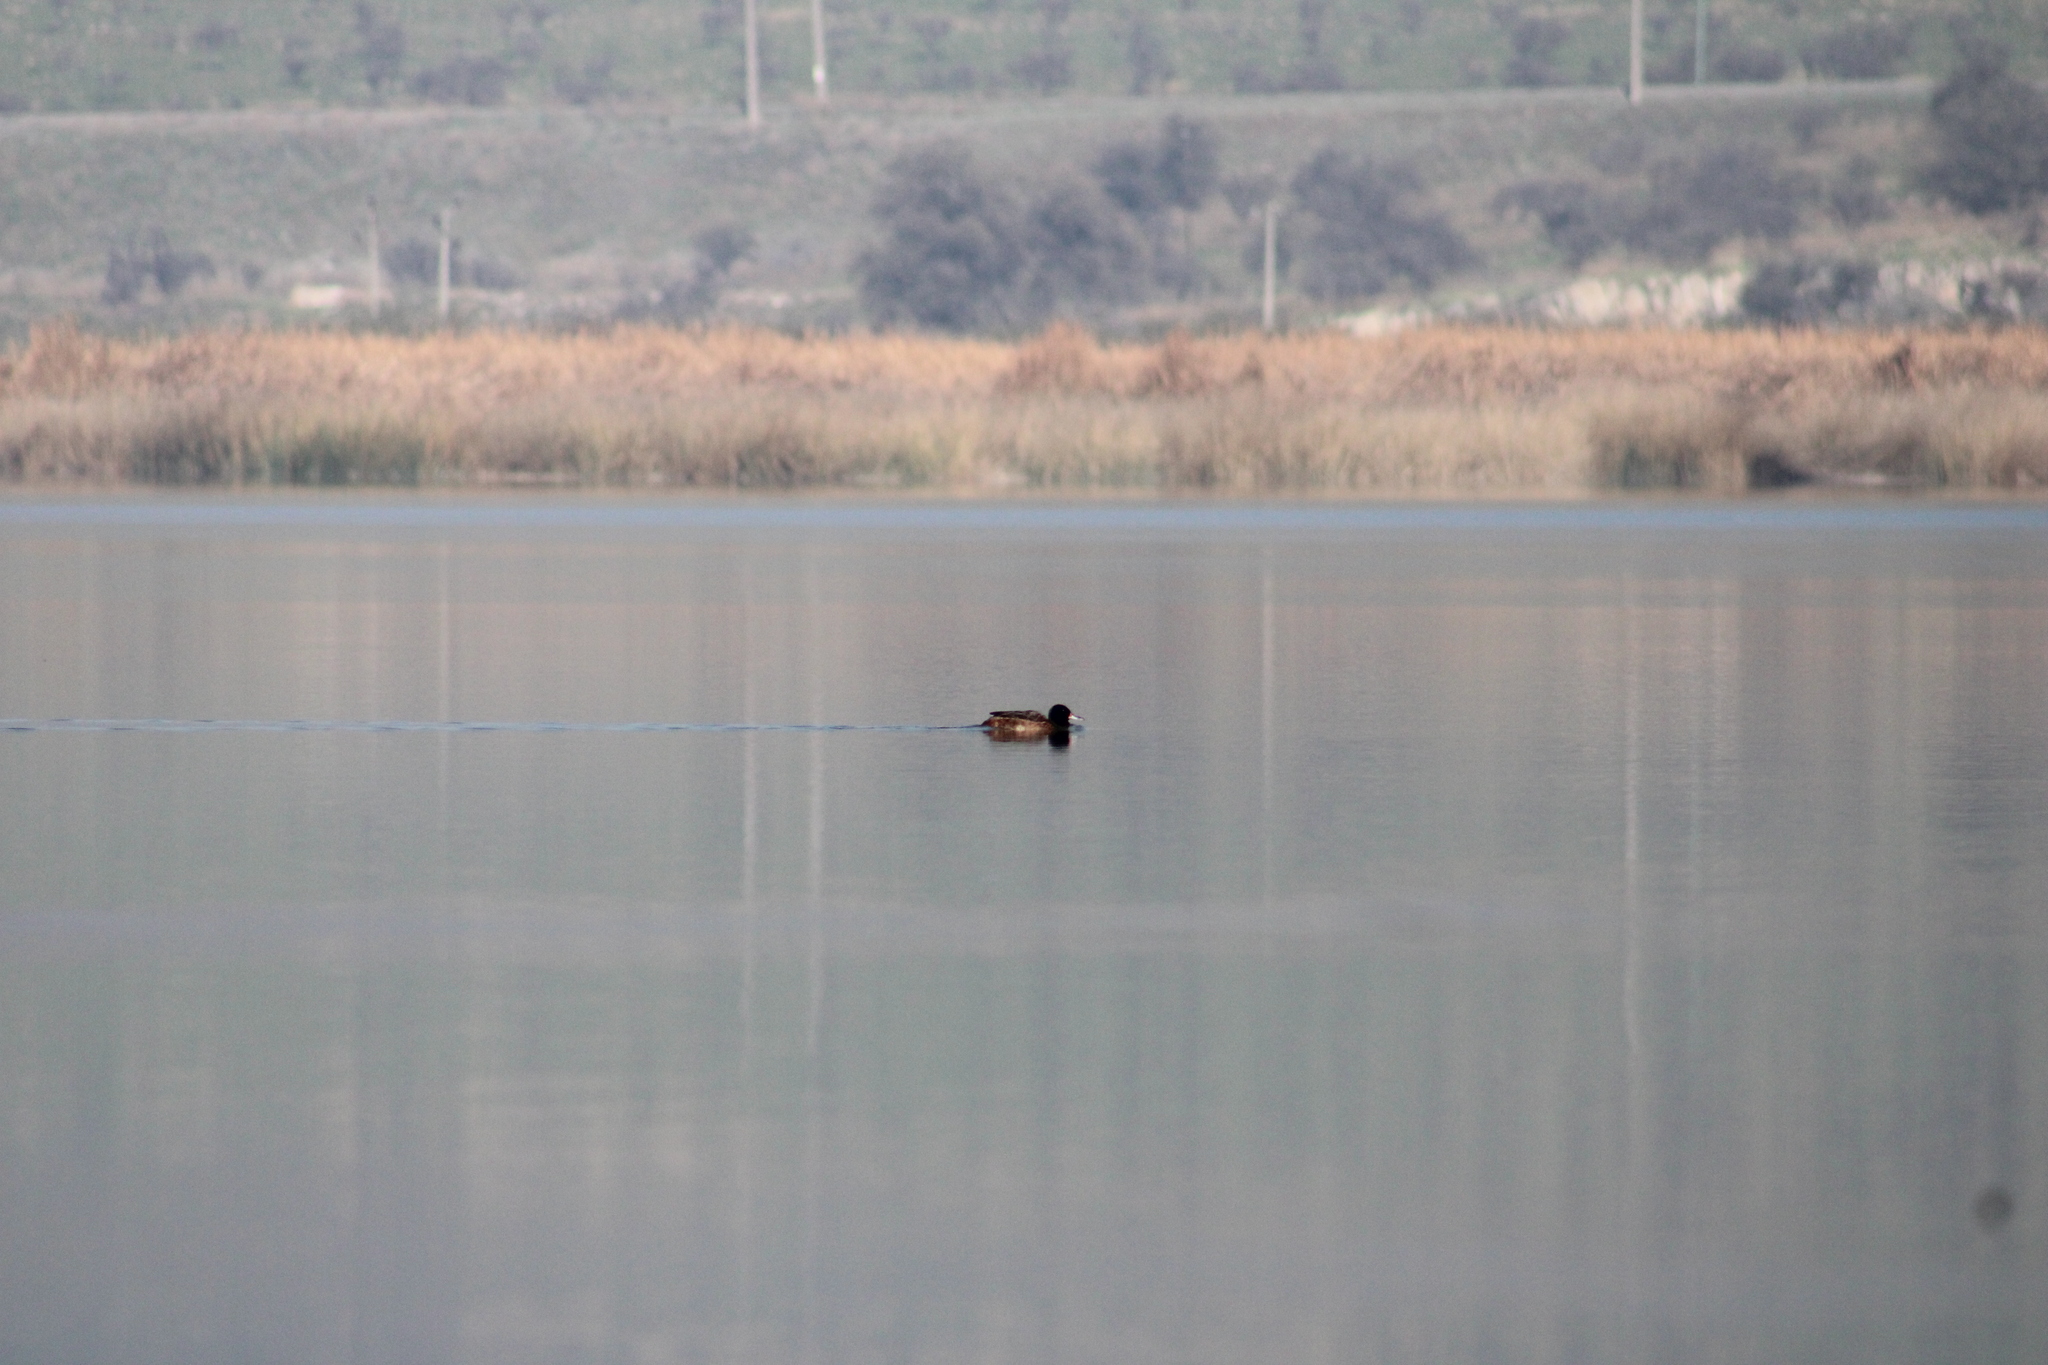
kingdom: Animalia
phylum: Chordata
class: Aves
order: Anseriformes
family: Anatidae
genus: Heteronetta
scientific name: Heteronetta atricapilla
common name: Black-headed duck
